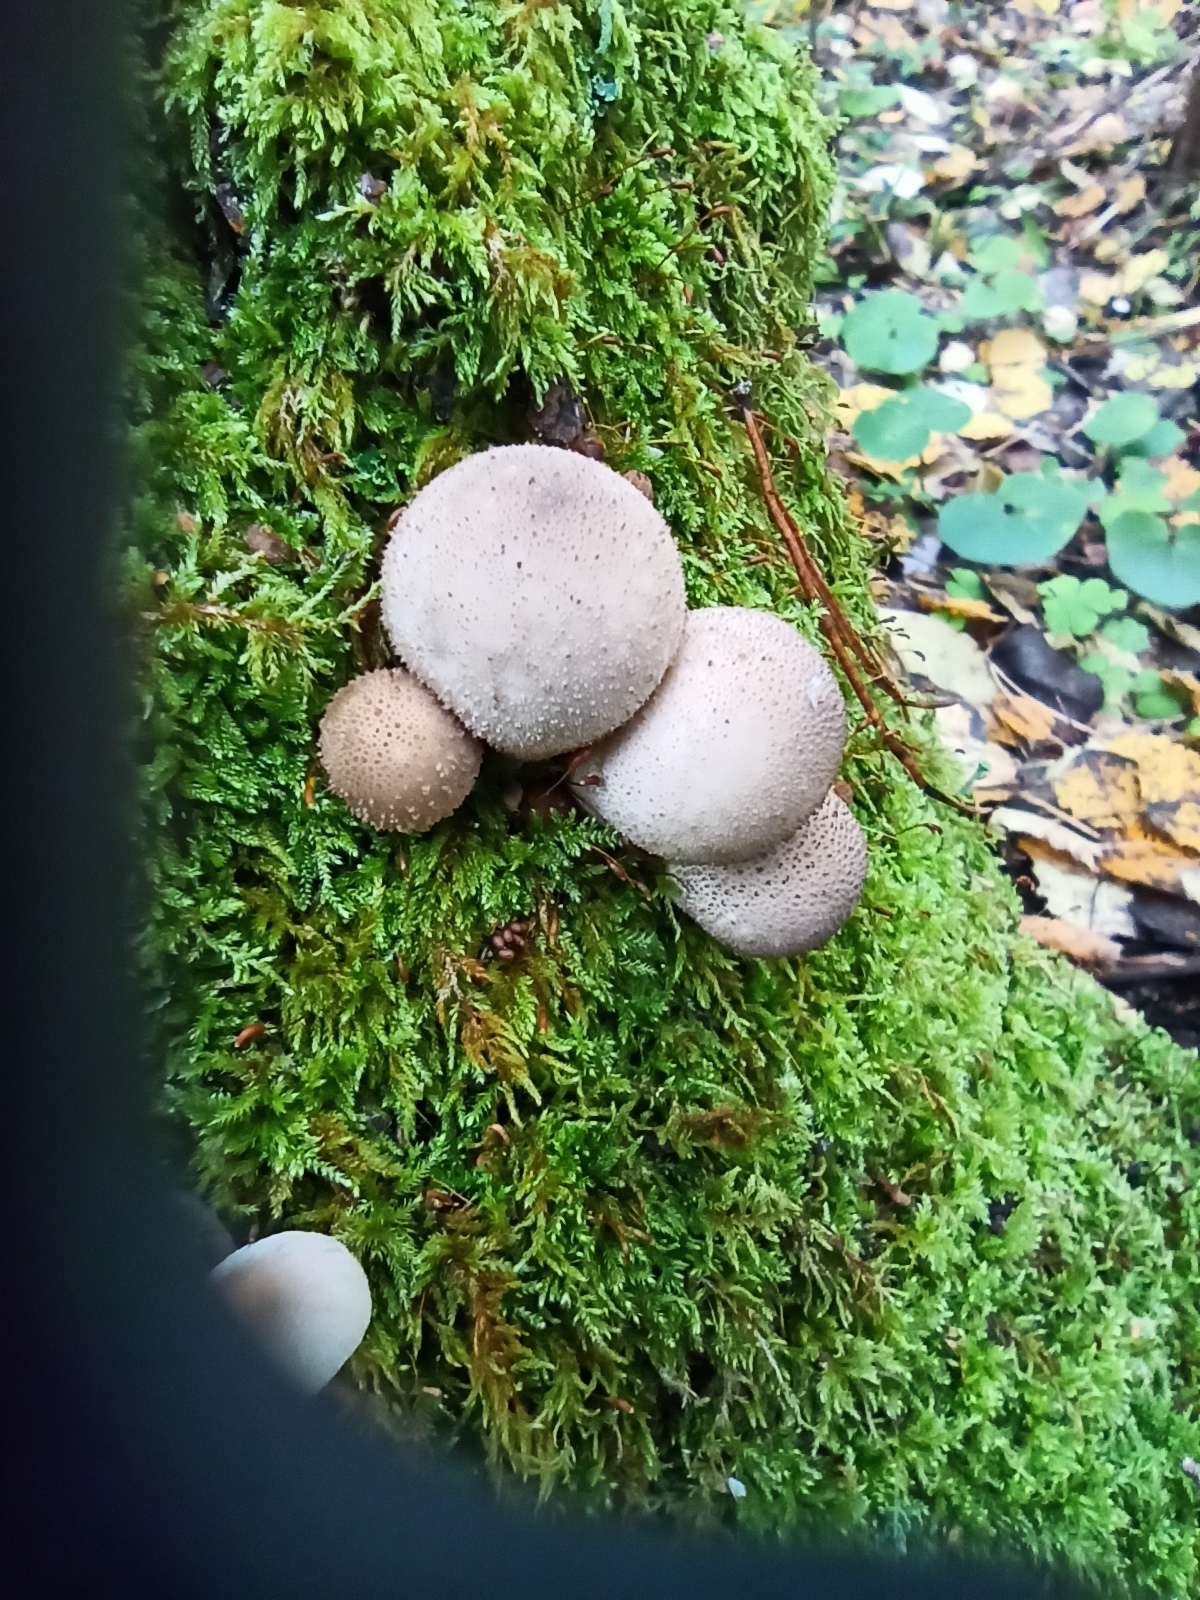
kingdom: Fungi
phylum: Basidiomycota
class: Agaricomycetes
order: Agaricales
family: Lycoperdaceae
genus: Apioperdon
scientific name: Apioperdon pyriforme
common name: Pear-shaped puffball
